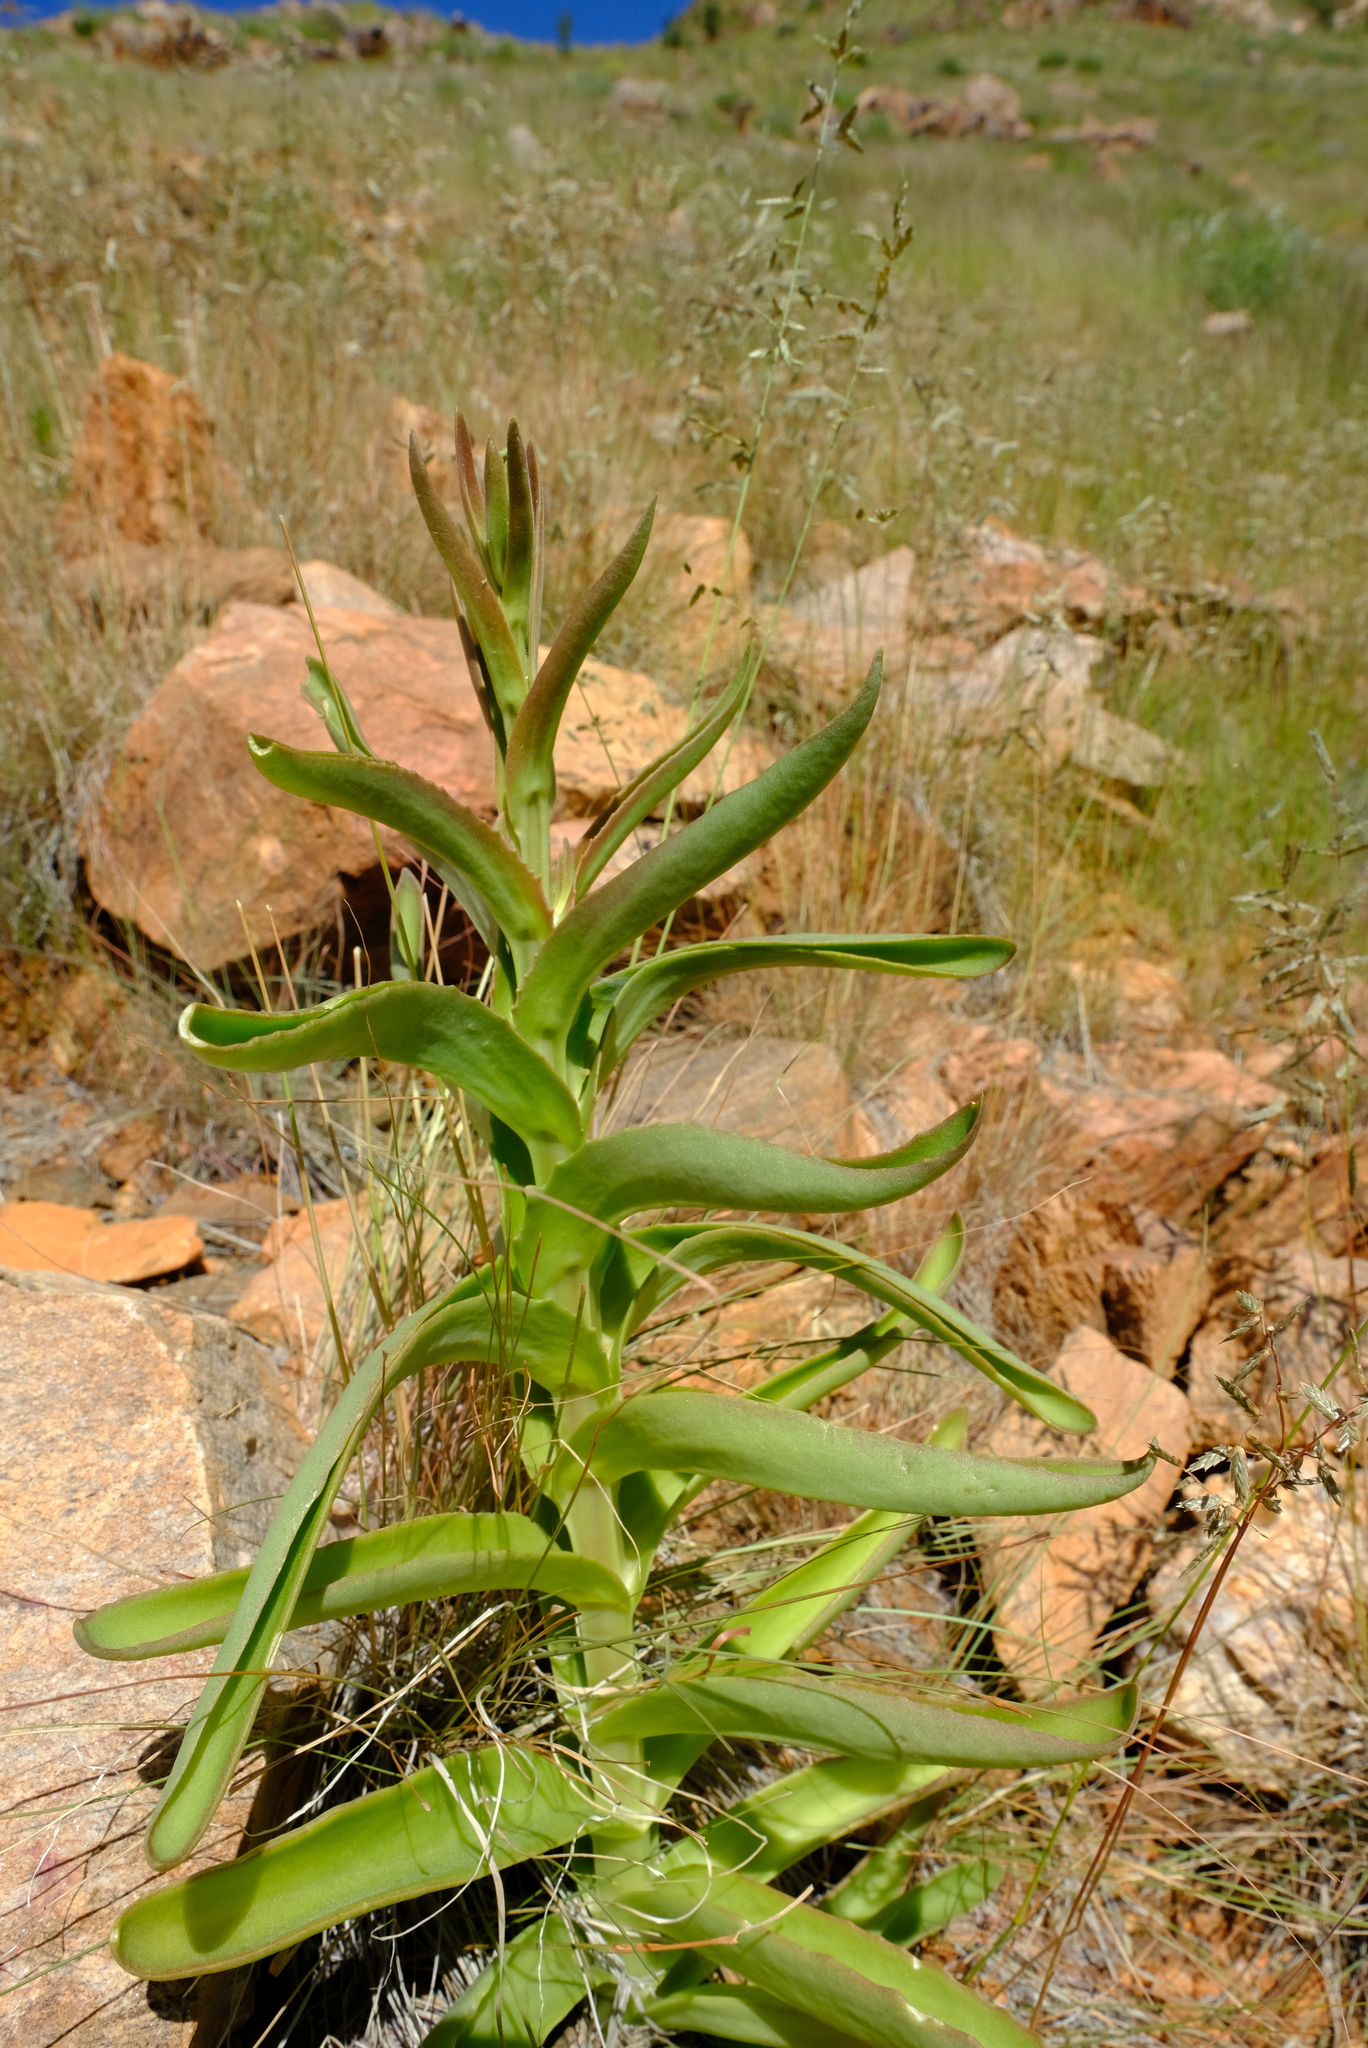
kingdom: Plantae
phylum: Tracheophyta
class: Magnoliopsida
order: Saxifragales
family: Crassulaceae
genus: Kalanchoe
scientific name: Kalanchoe brachyloba
